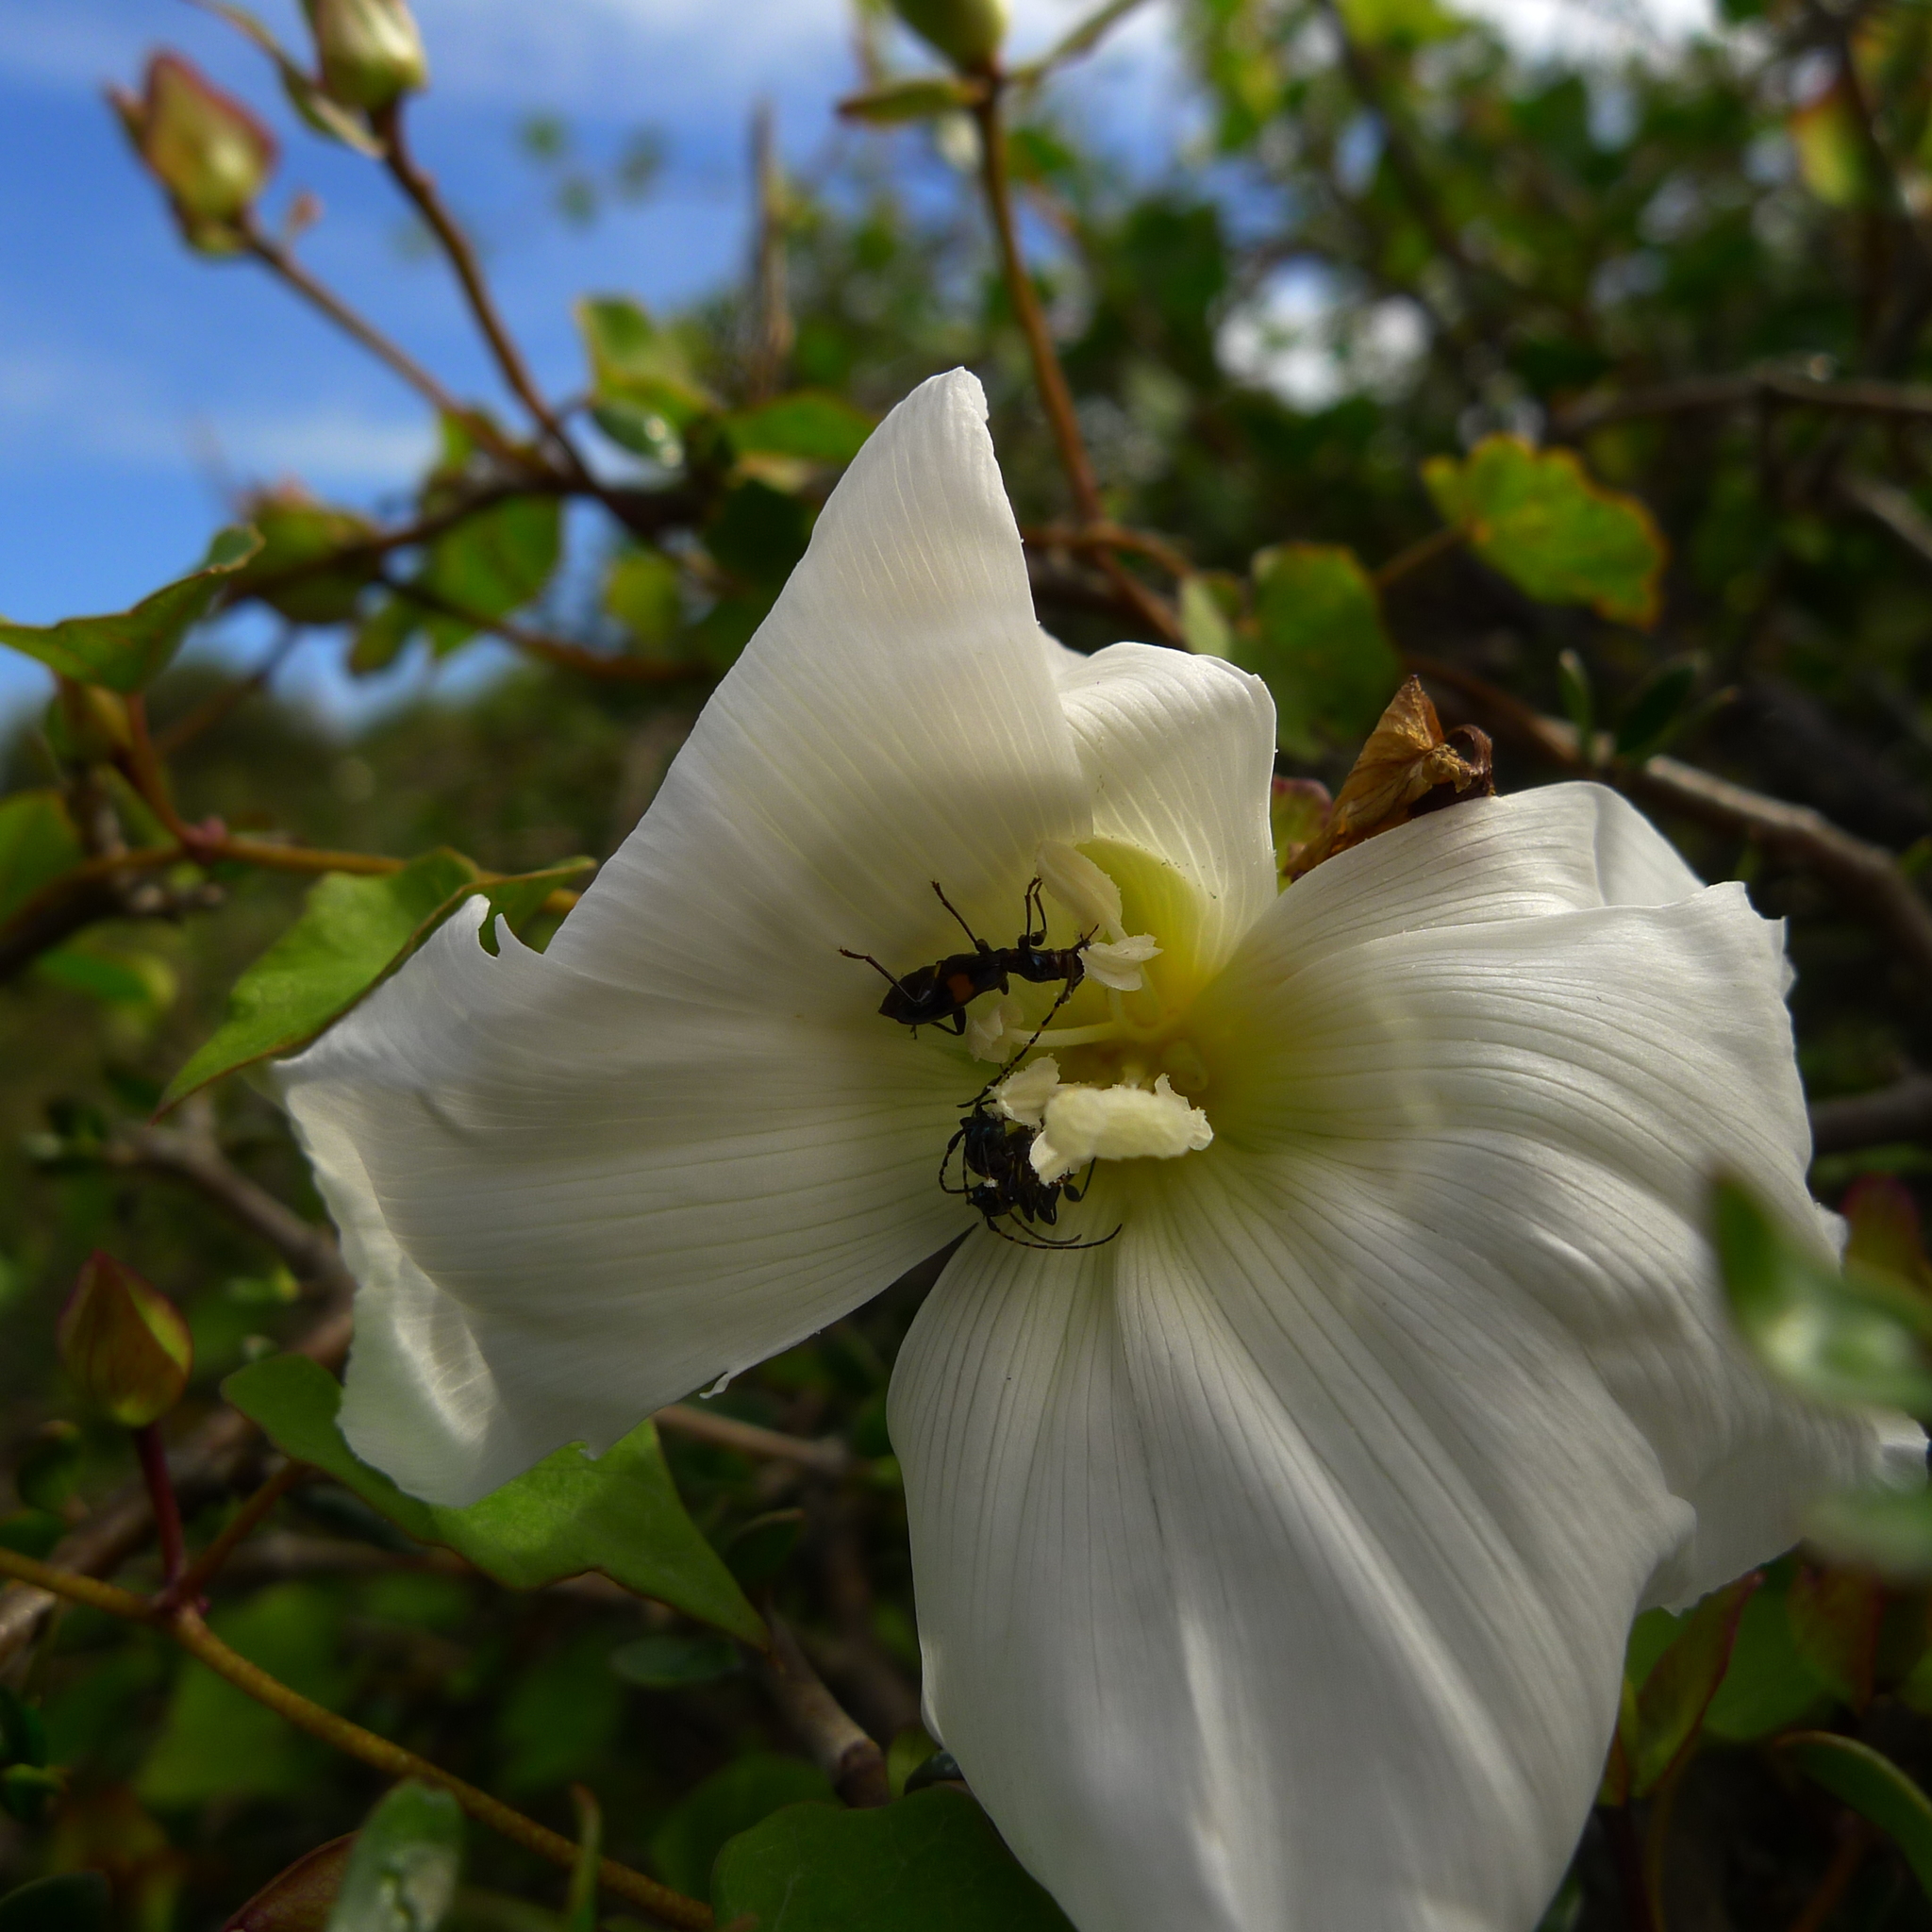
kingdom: Animalia
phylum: Arthropoda
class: Insecta
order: Coleoptera
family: Cerambycidae
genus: Zorion
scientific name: Zorion guttigerum
